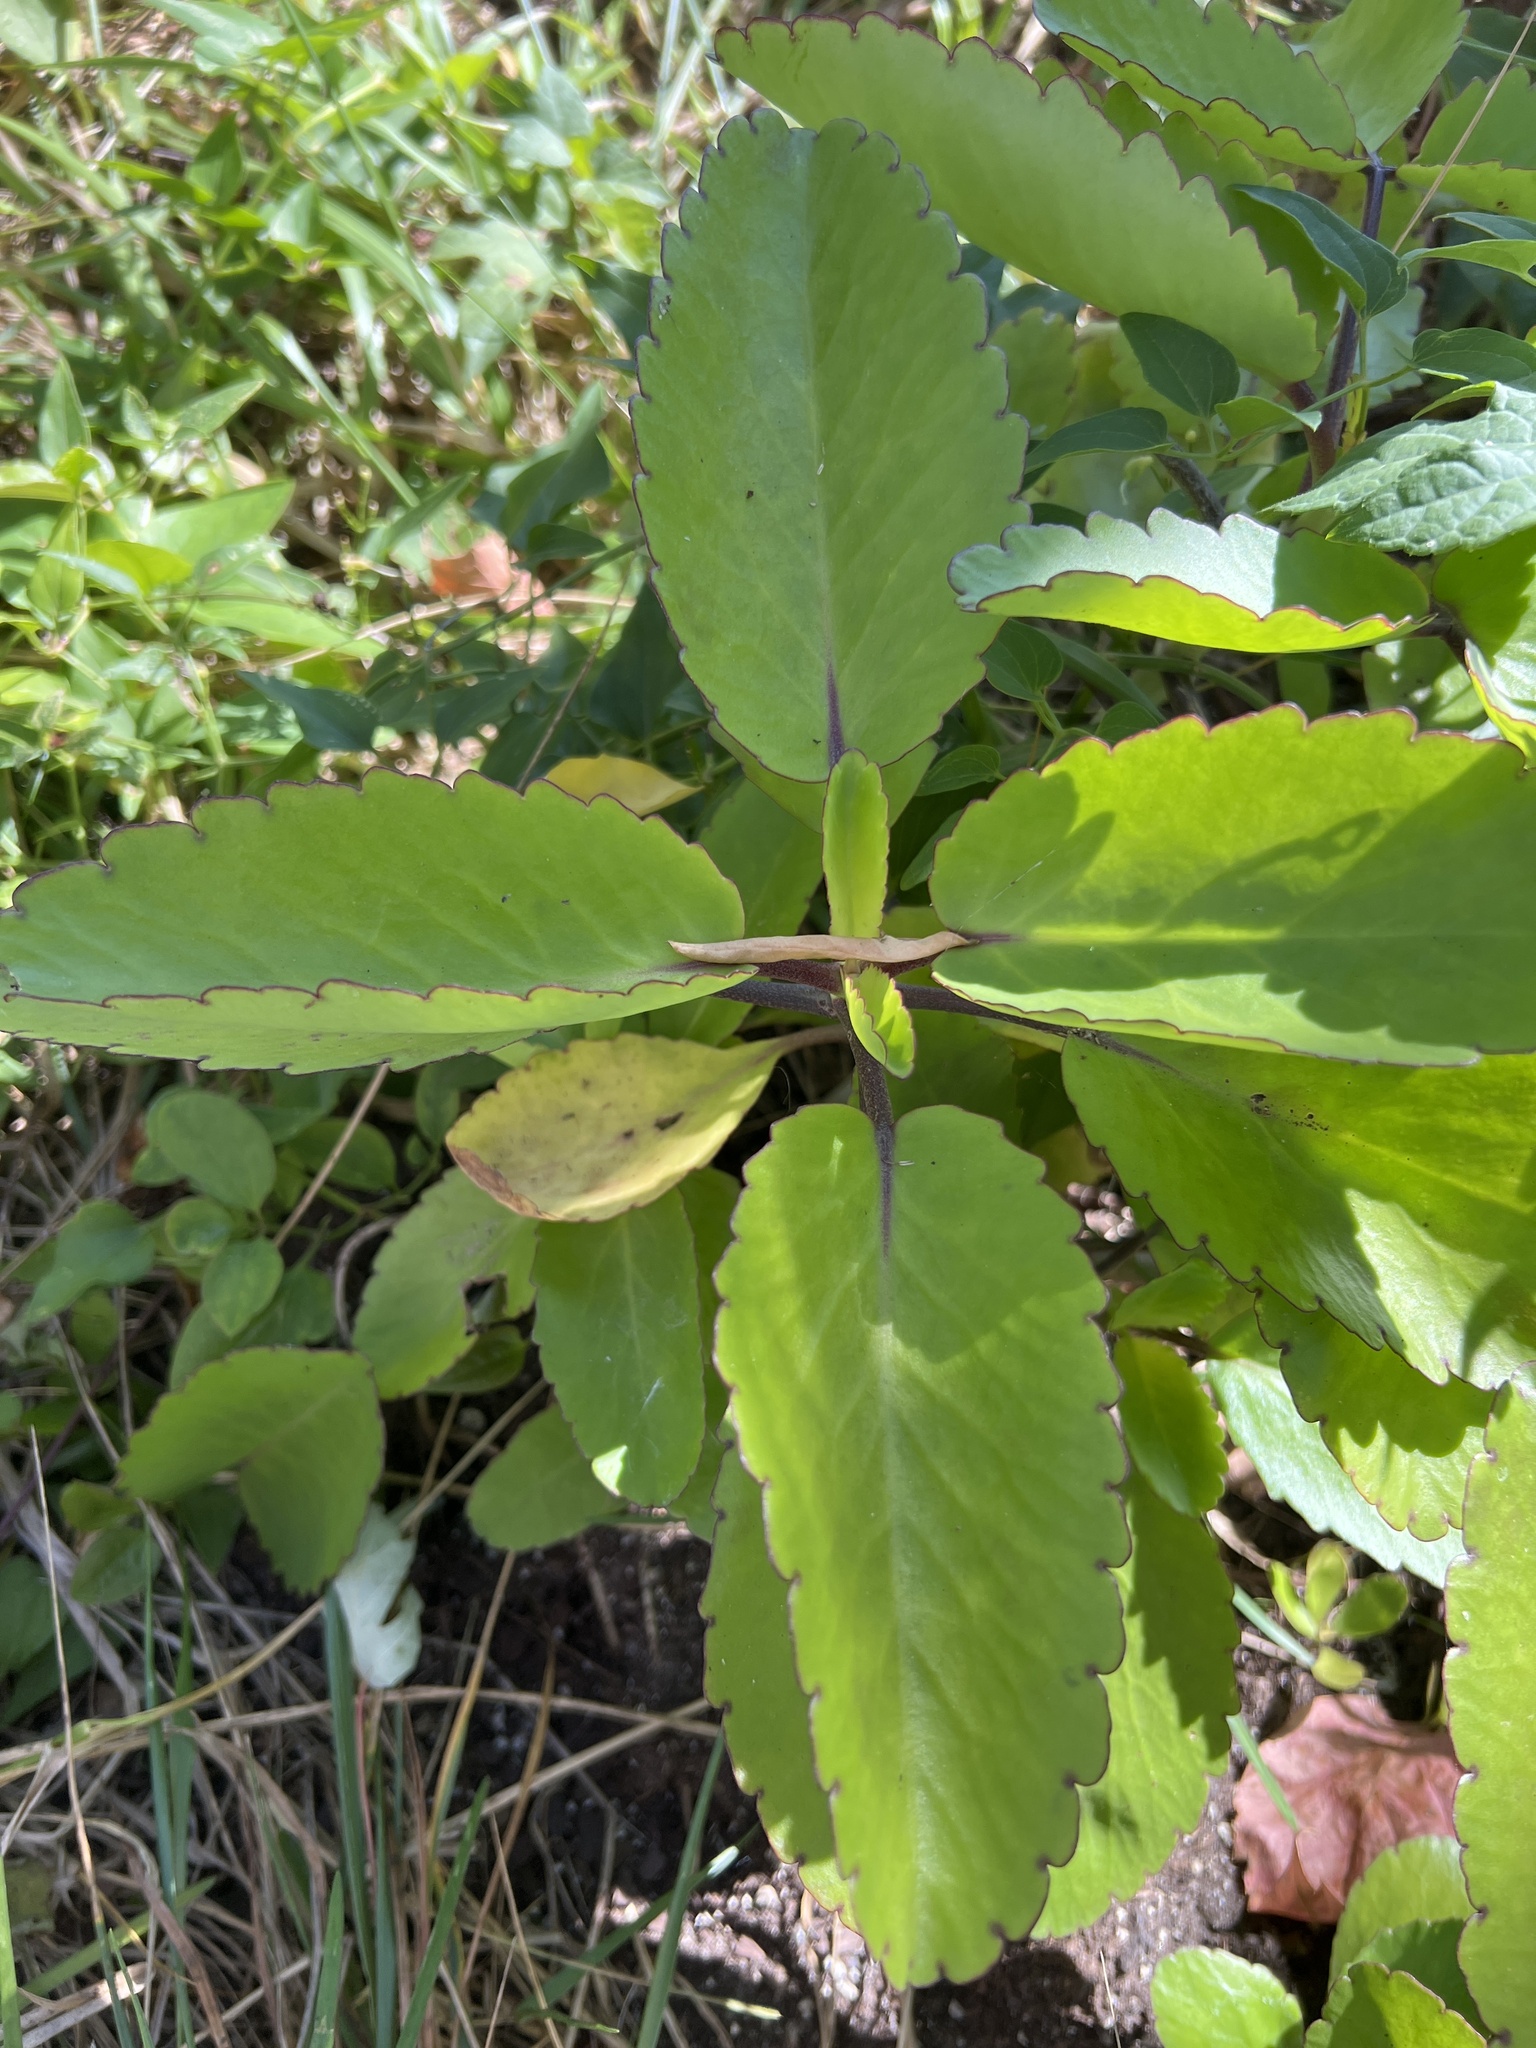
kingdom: Plantae
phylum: Tracheophyta
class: Magnoliopsida
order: Saxifragales
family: Crassulaceae
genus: Kalanchoe
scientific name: Kalanchoe pinnata
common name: Cathedral bells
